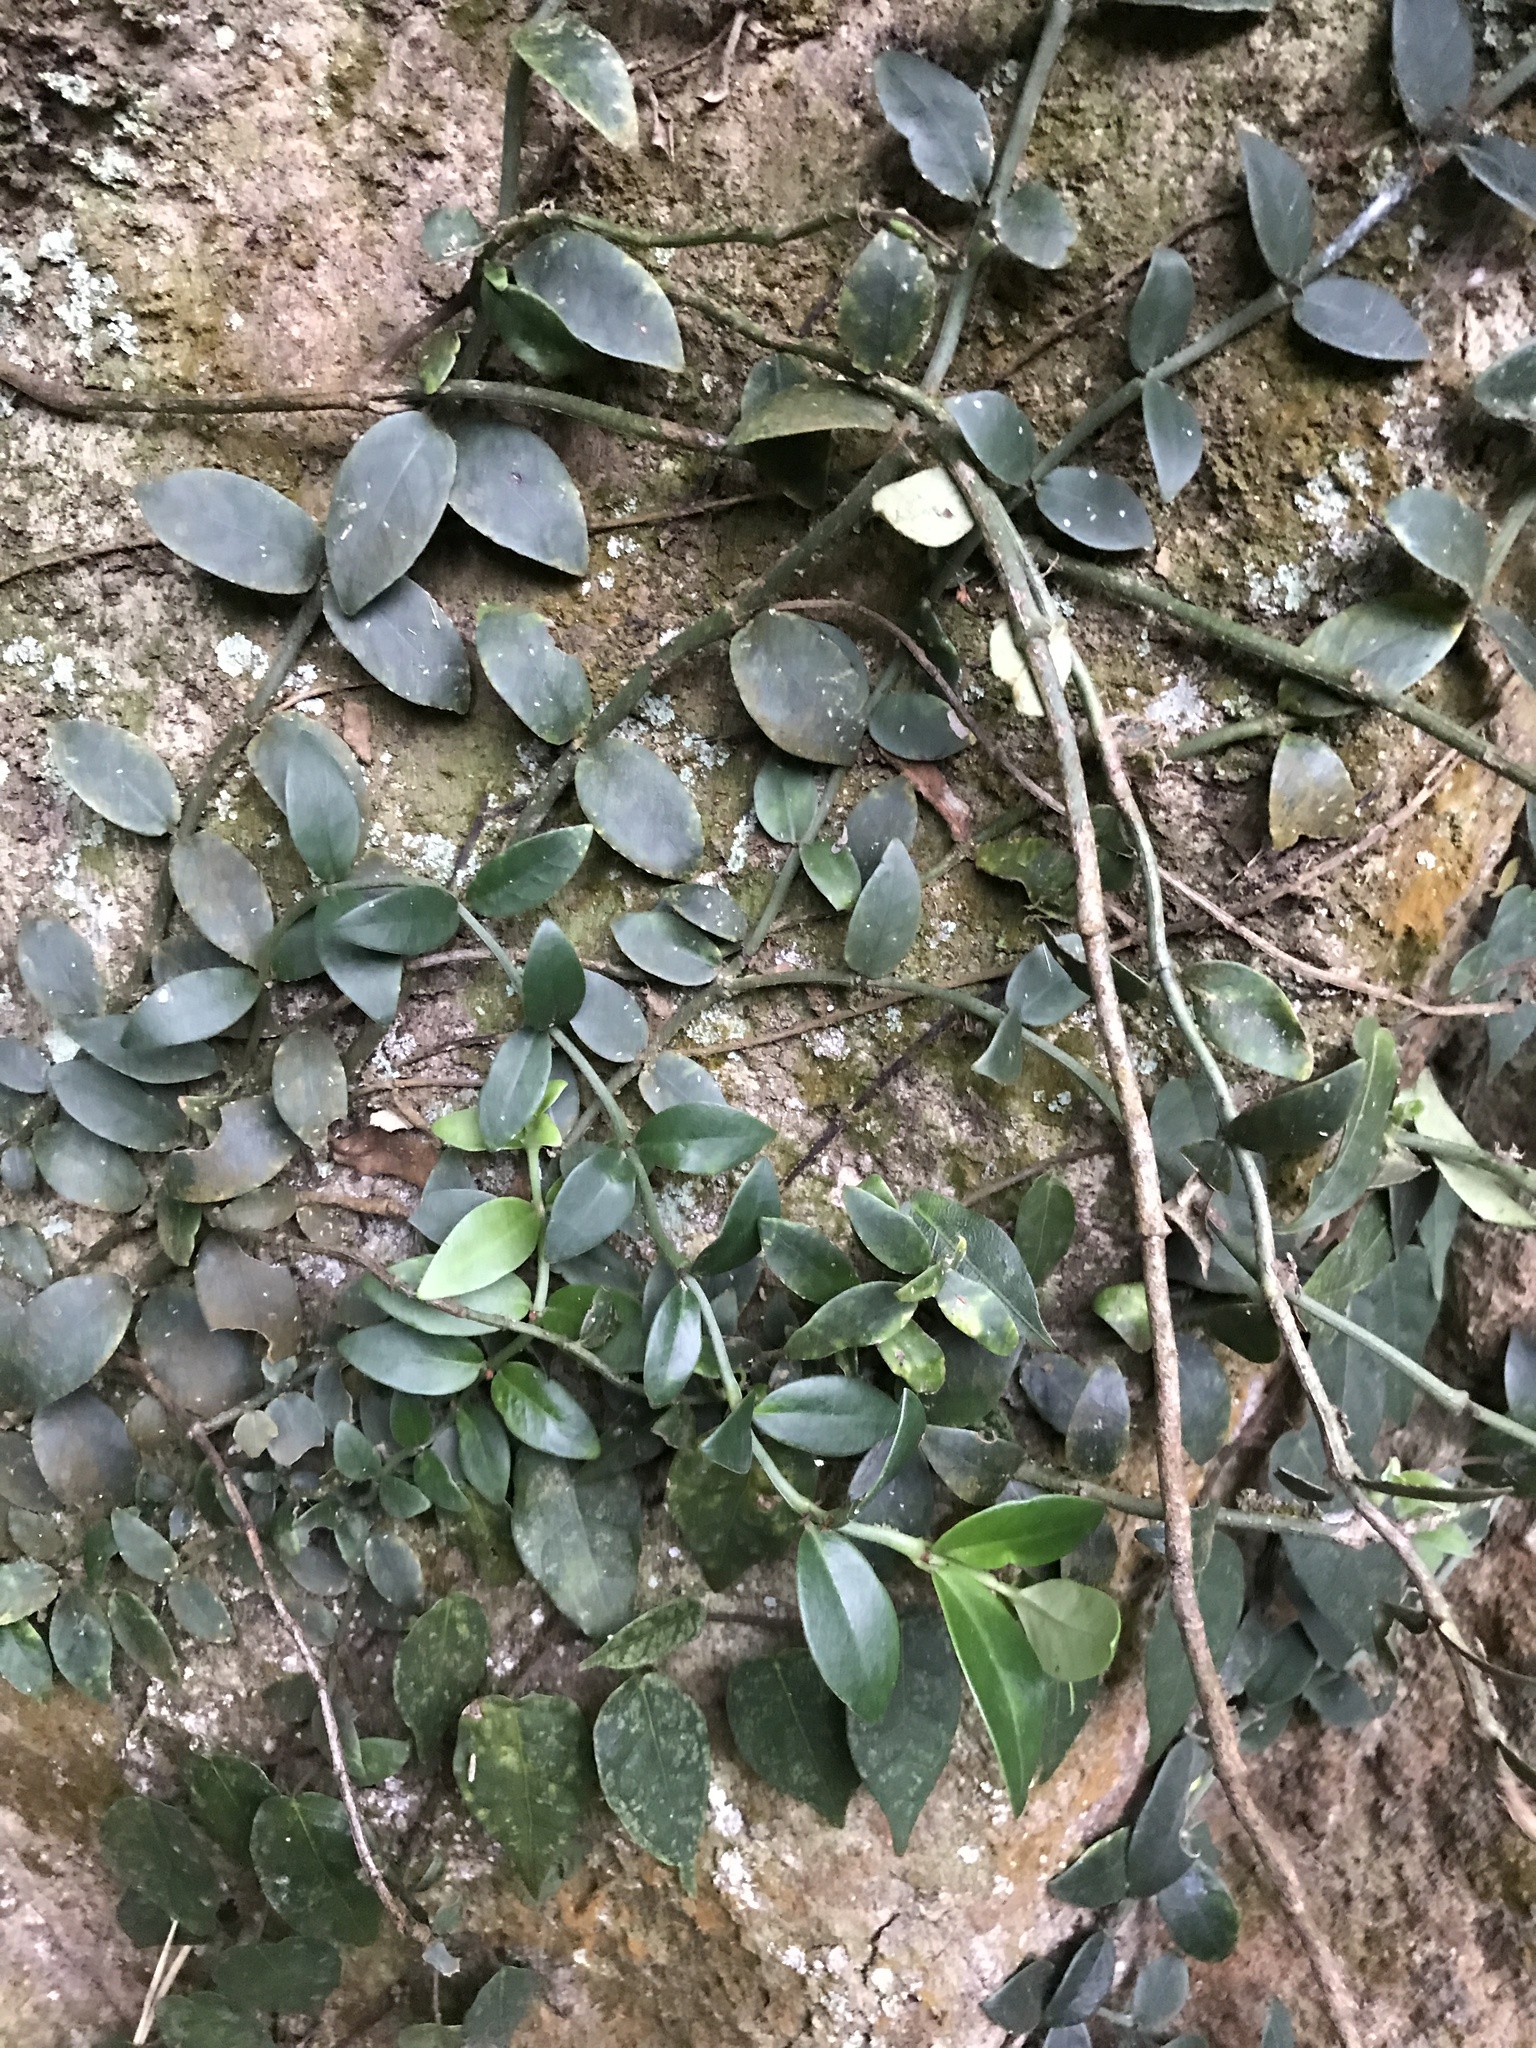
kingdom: Plantae
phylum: Tracheophyta
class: Magnoliopsida
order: Gentianales
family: Rubiaceae
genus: Psychotria
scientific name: Psychotria serpens
